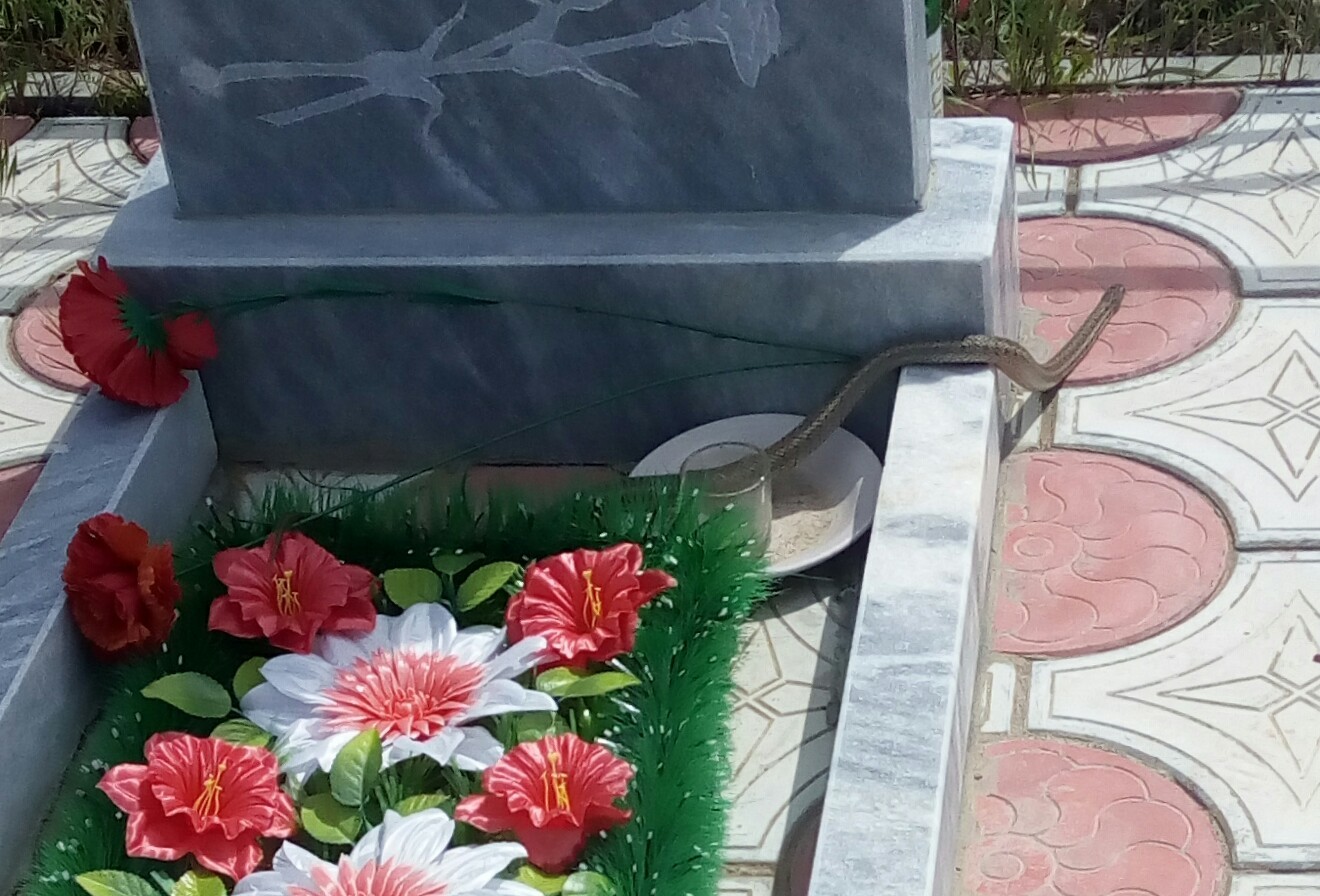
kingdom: Animalia
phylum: Chordata
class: Squamata
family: Colubridae
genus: Elaphe
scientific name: Elaphe dione
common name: Dione ratsnake
